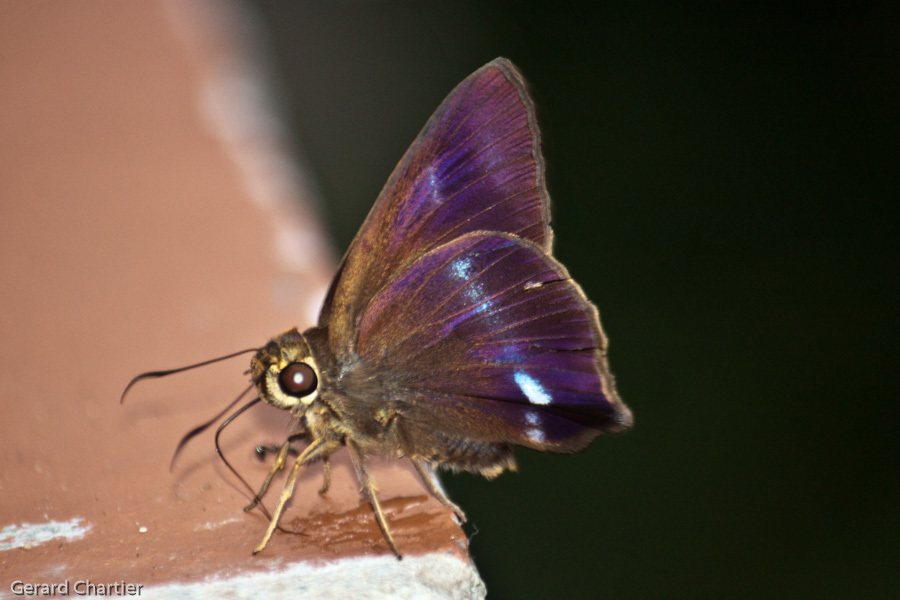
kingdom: Animalia
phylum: Arthropoda
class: Insecta
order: Lepidoptera
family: Hesperiidae
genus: Hasora
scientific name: Hasora leucospila
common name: Violet awl
